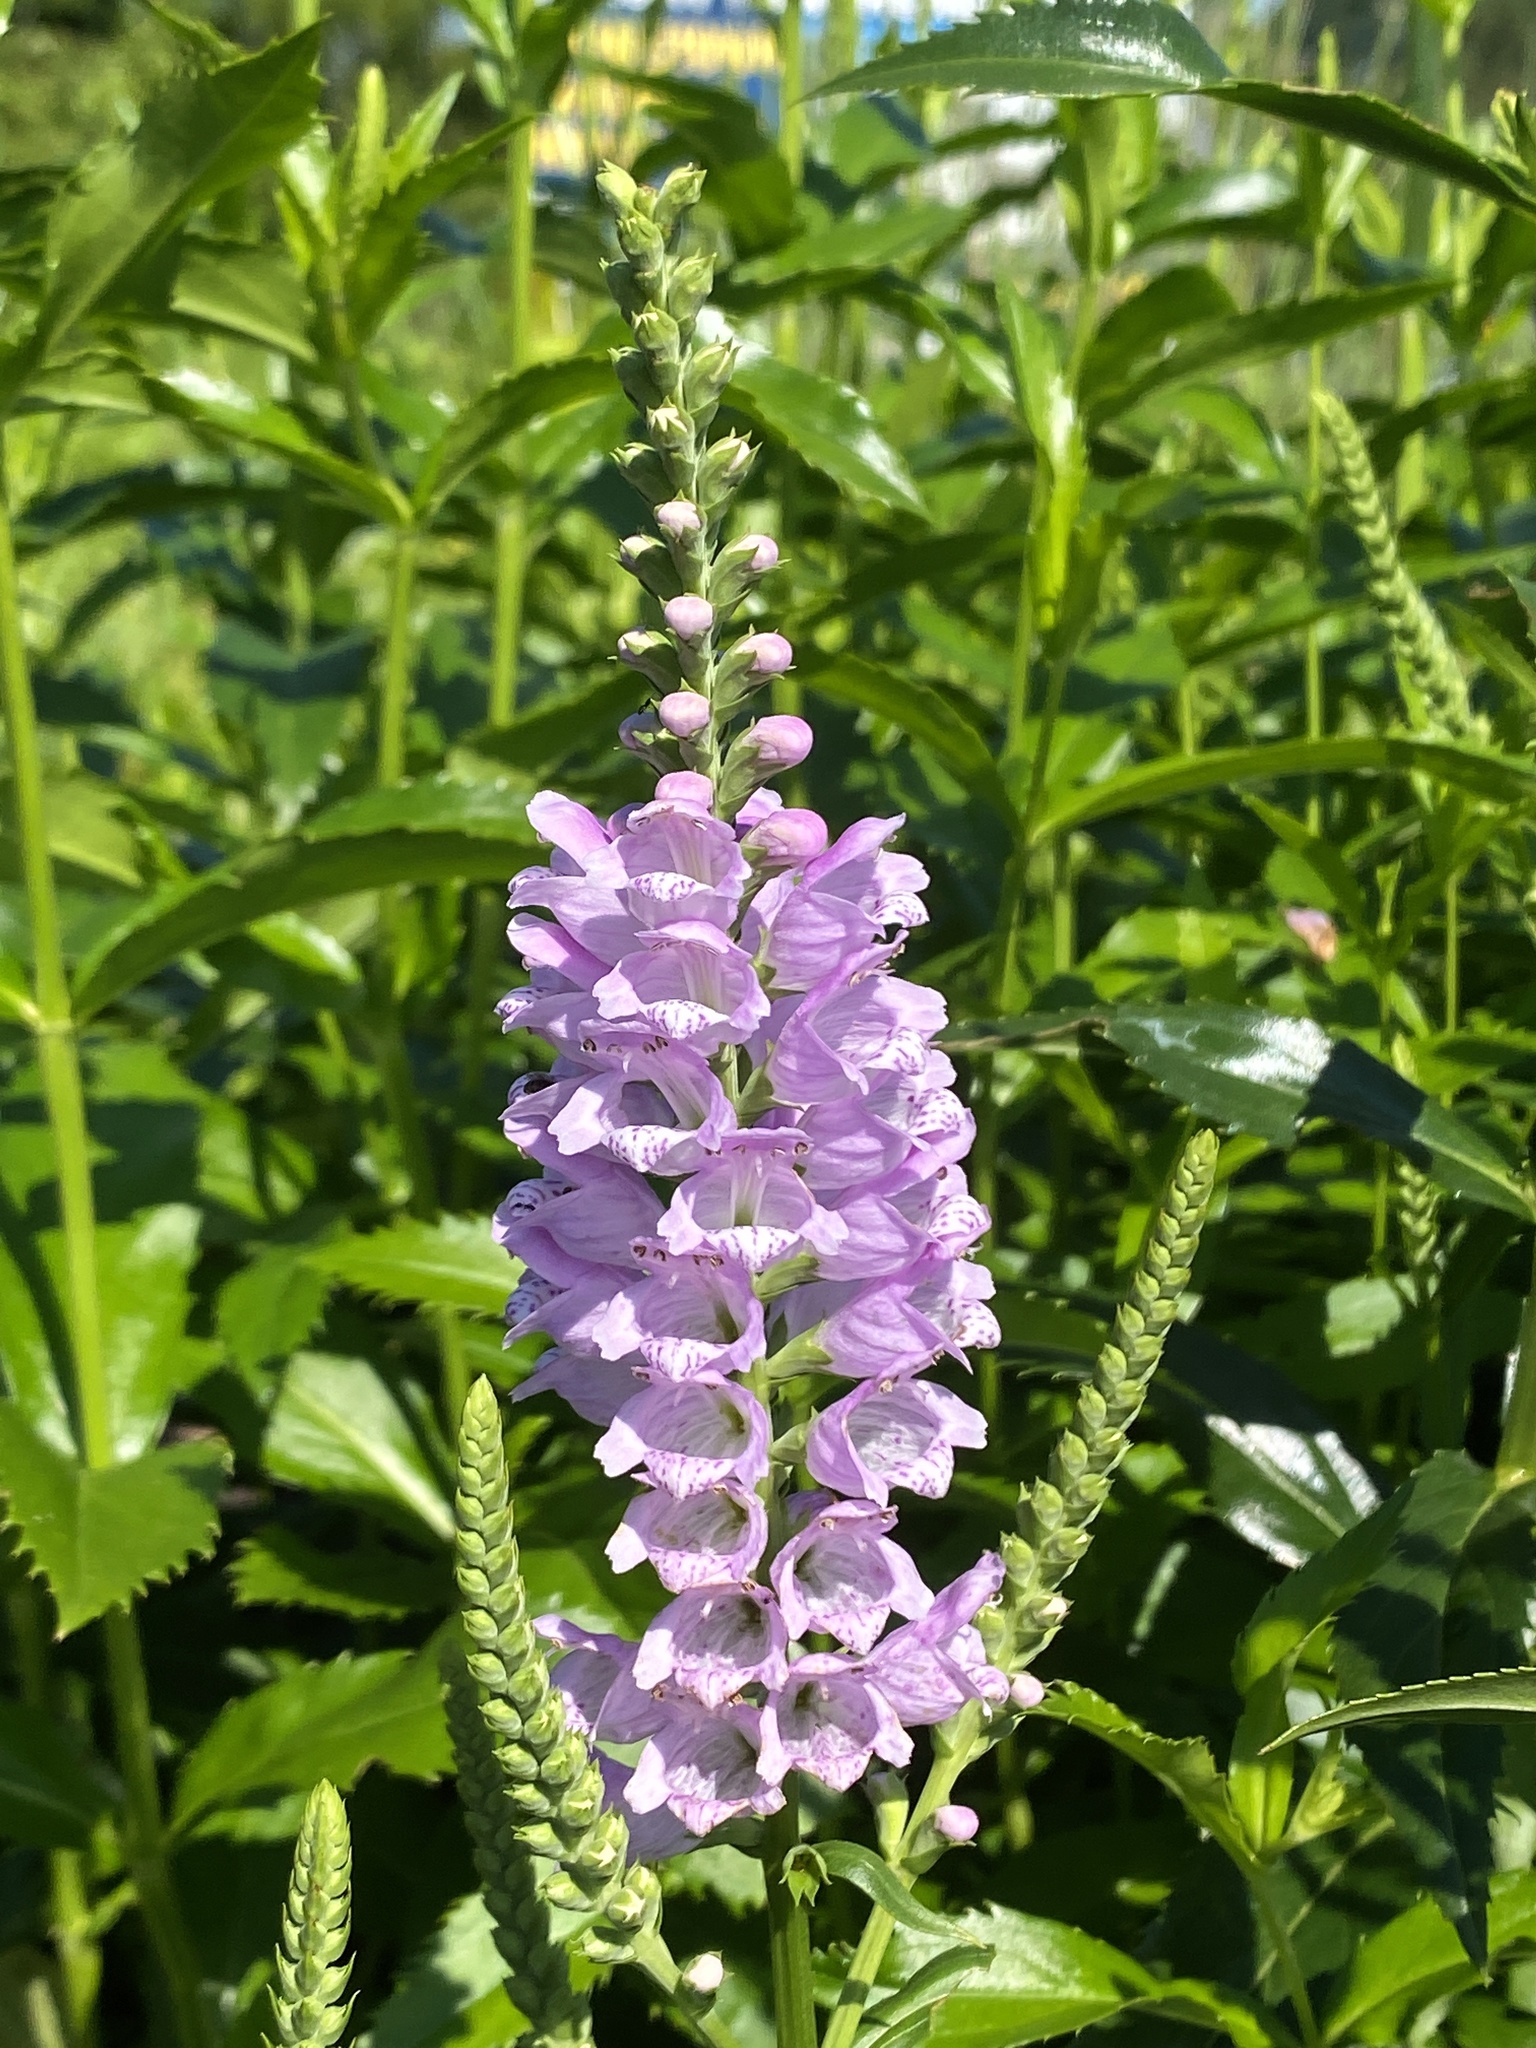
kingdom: Plantae
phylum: Tracheophyta
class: Magnoliopsida
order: Lamiales
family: Lamiaceae
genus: Physostegia
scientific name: Physostegia virginiana
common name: Obedient-plant
